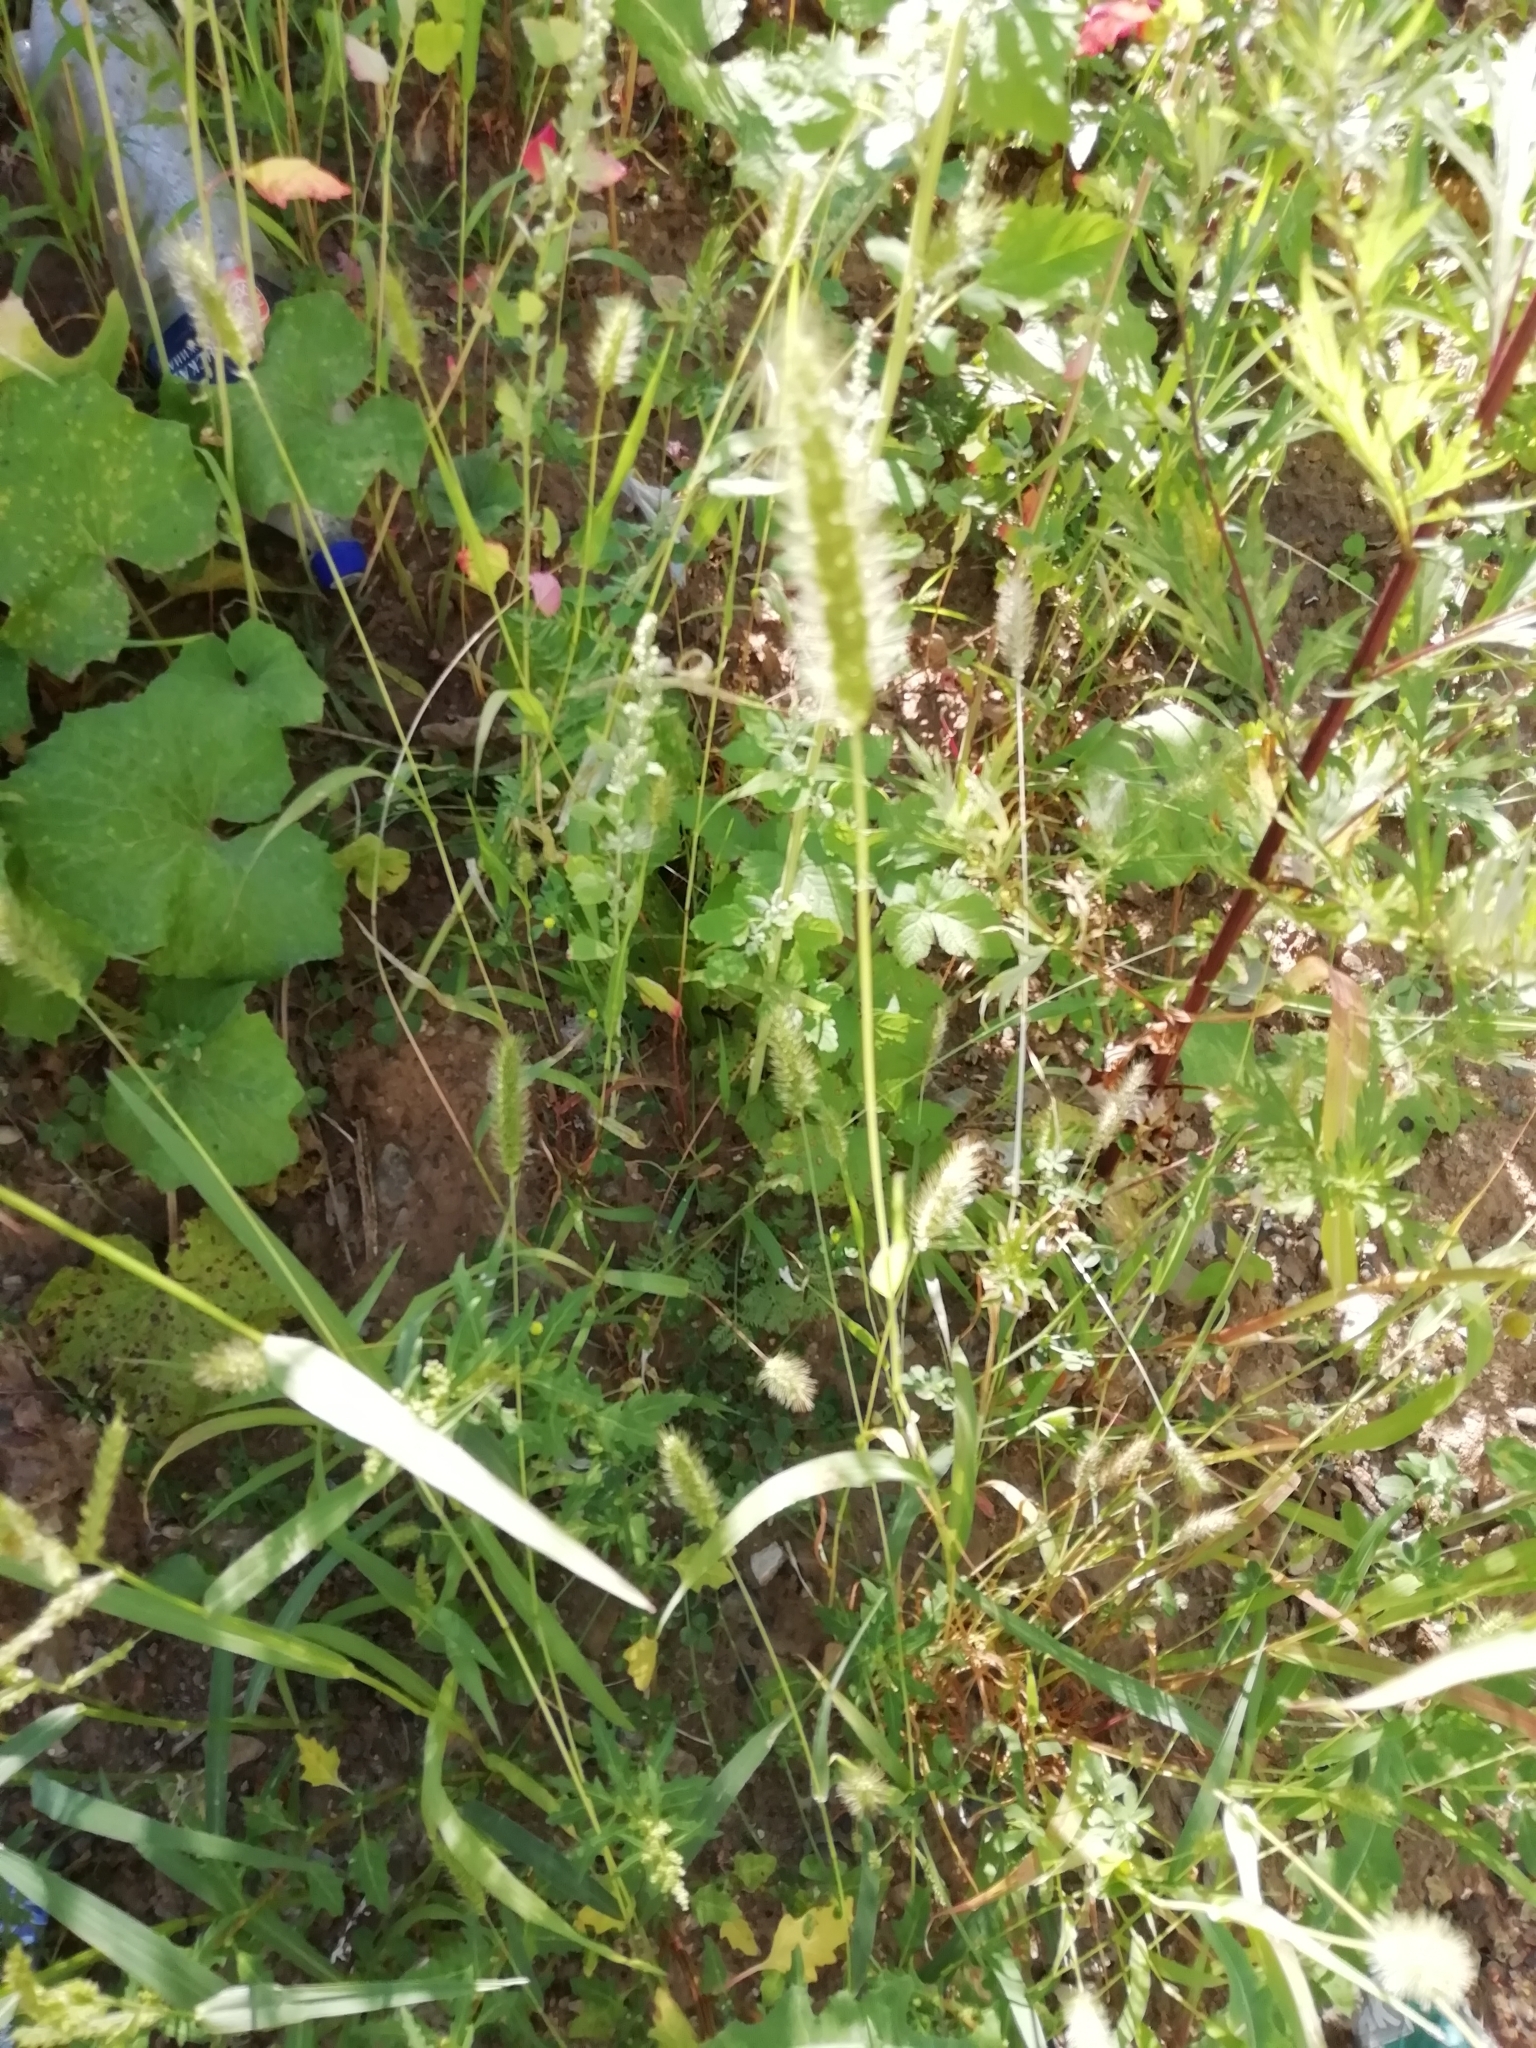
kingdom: Plantae
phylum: Tracheophyta
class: Liliopsida
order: Poales
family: Poaceae
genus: Setaria
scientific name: Setaria viridis
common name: Green bristlegrass
